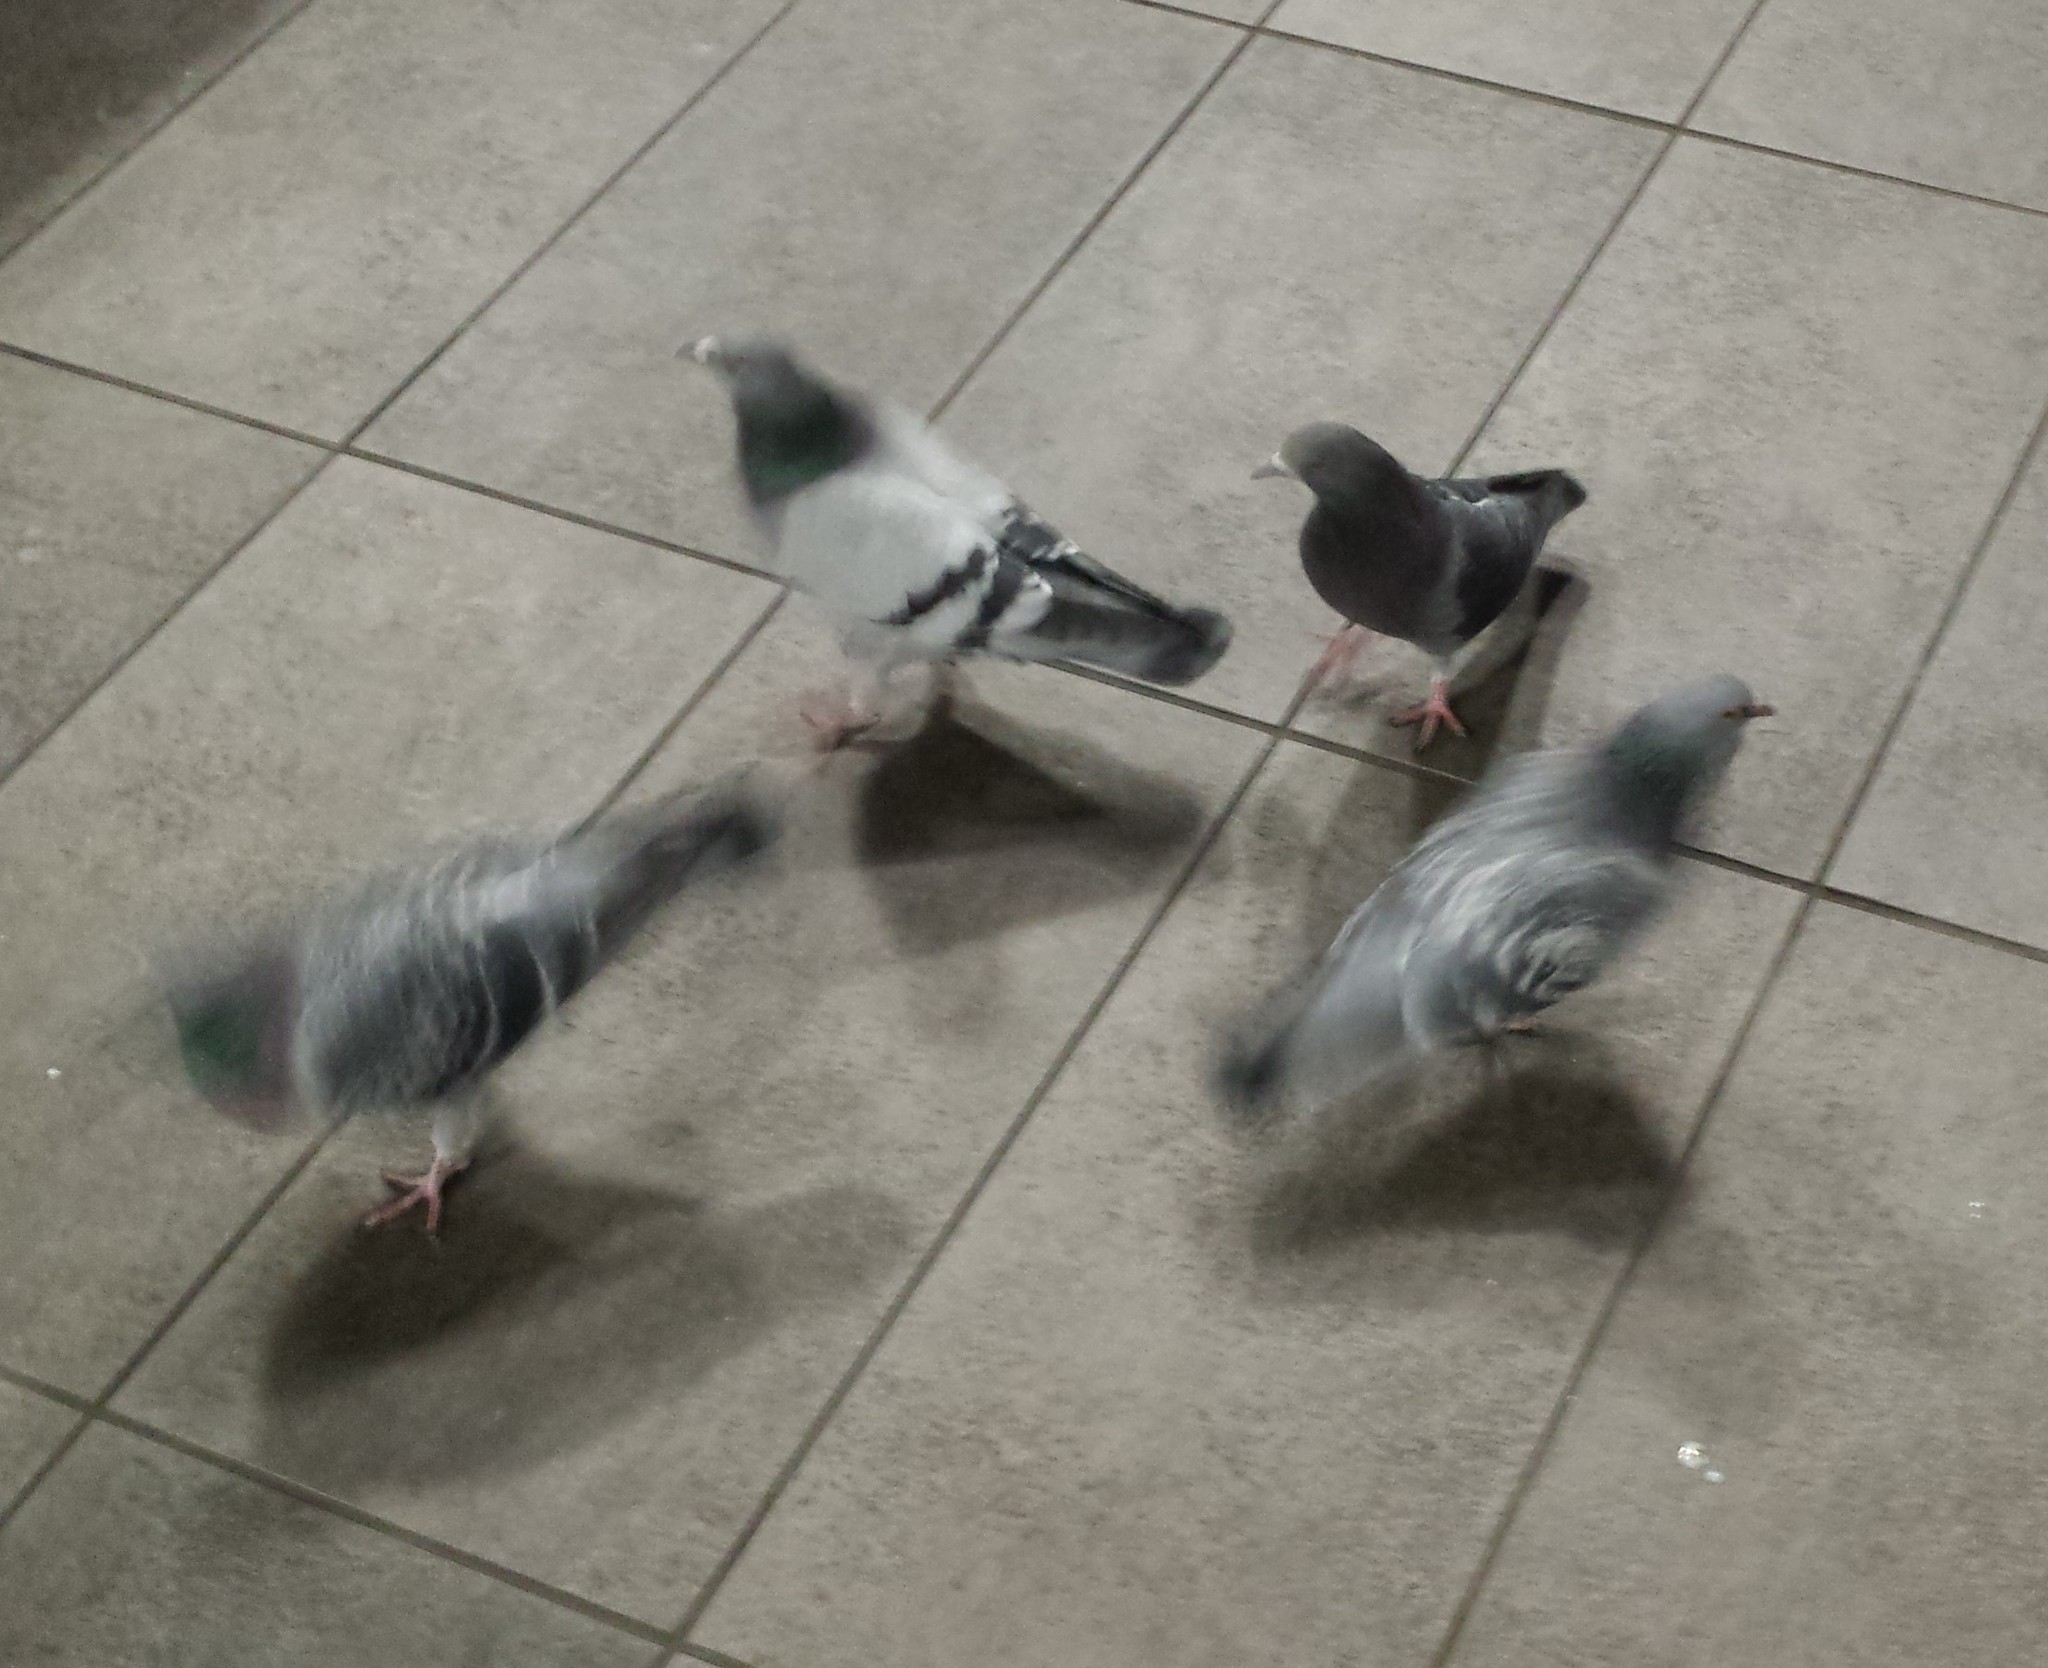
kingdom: Animalia
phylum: Chordata
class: Aves
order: Columbiformes
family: Columbidae
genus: Columba
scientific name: Columba livia
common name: Rock pigeon
